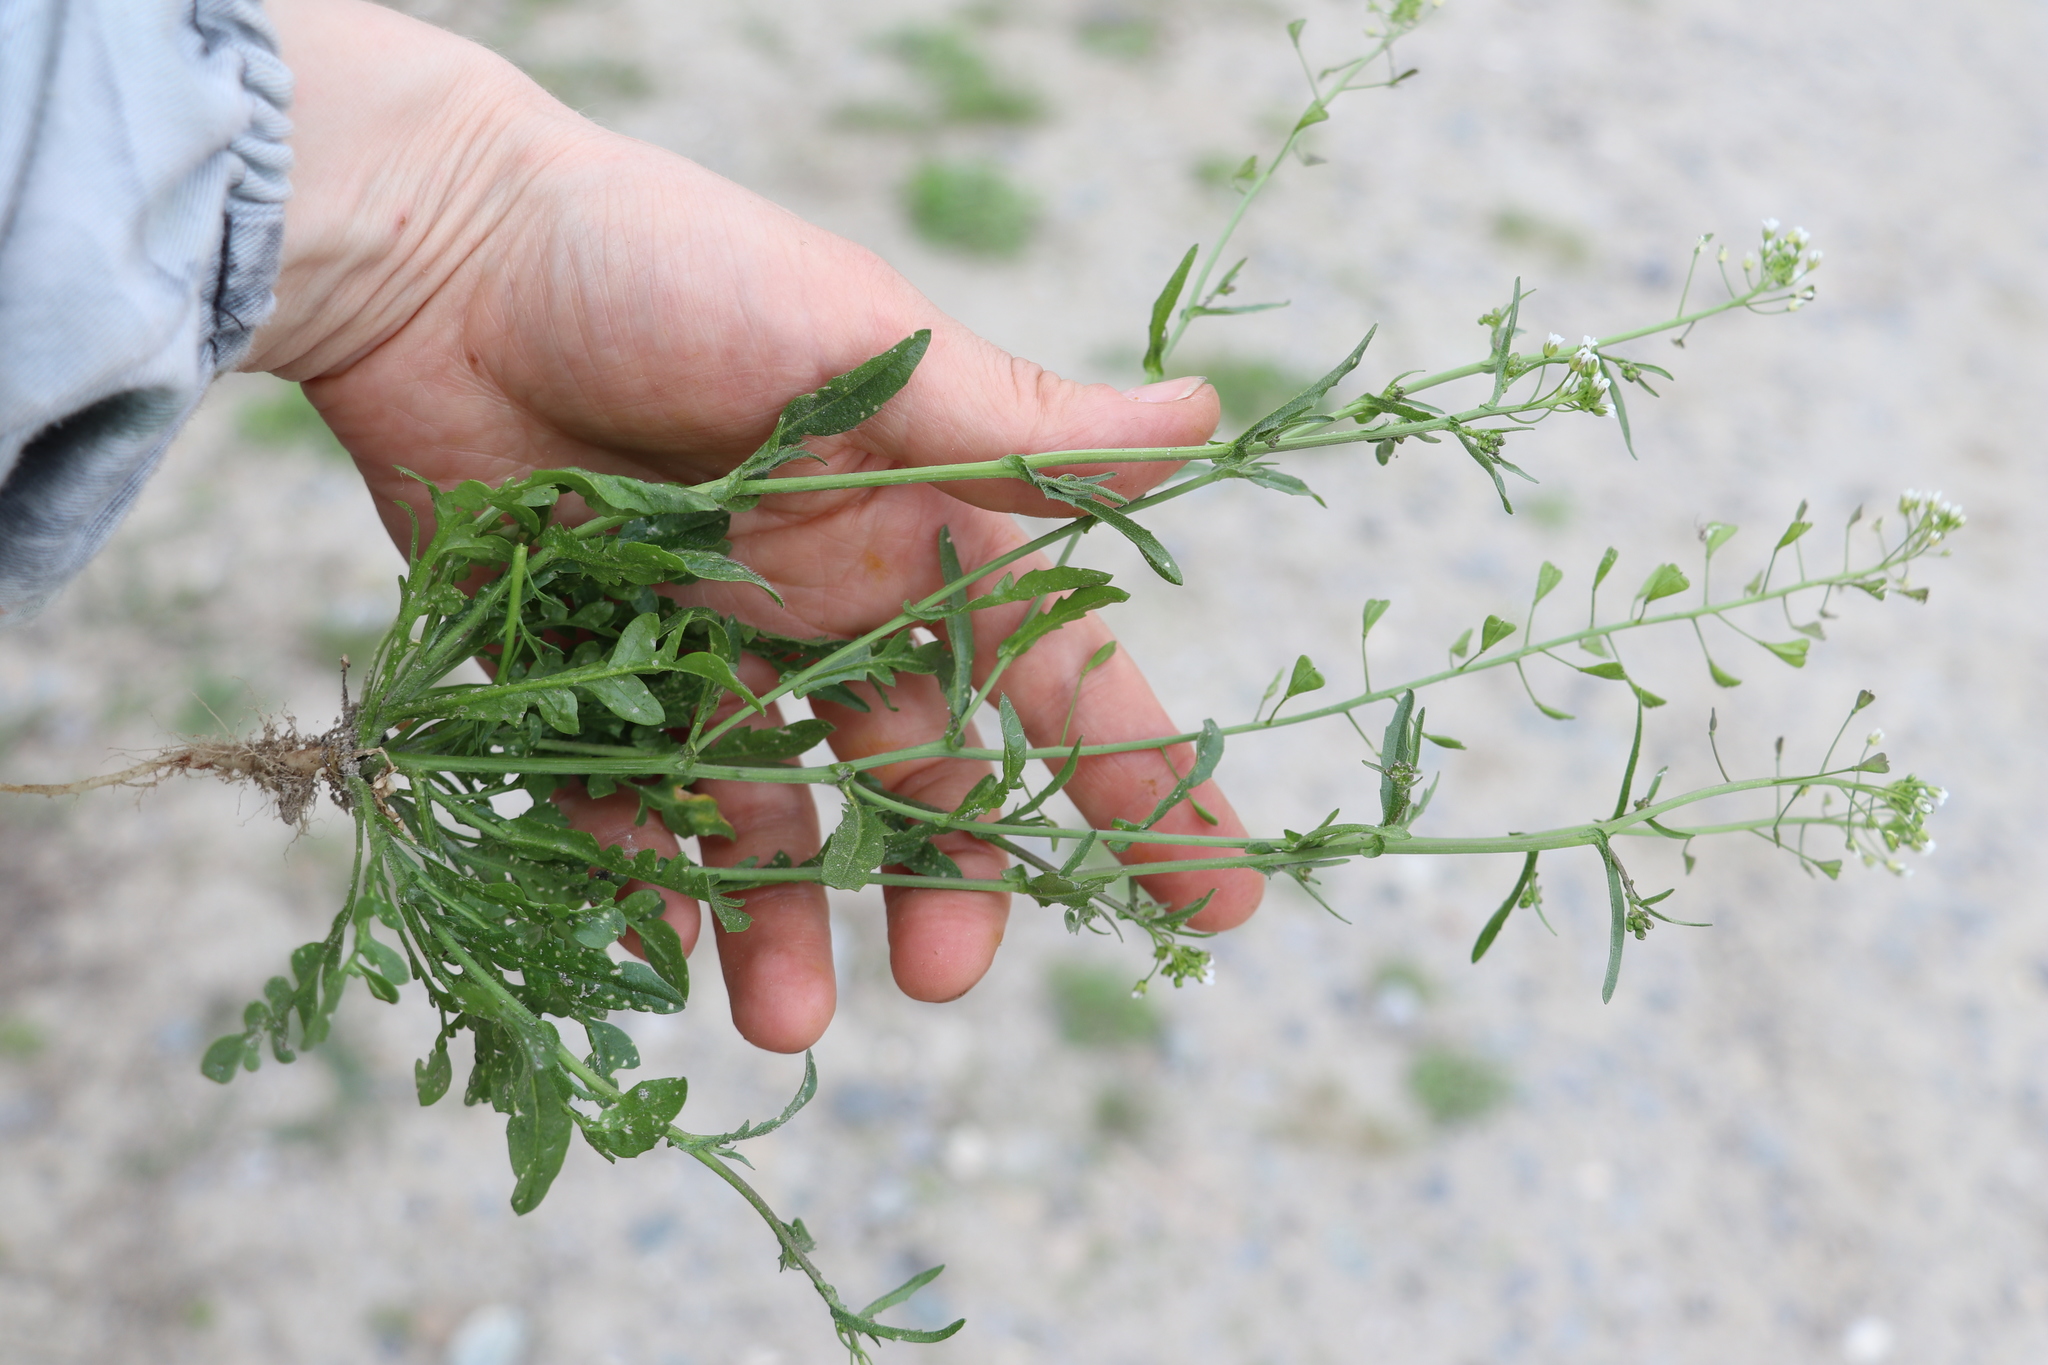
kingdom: Plantae
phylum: Tracheophyta
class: Magnoliopsida
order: Brassicales
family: Brassicaceae
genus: Capsella
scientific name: Capsella bursa-pastoris
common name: Shepherd's purse
